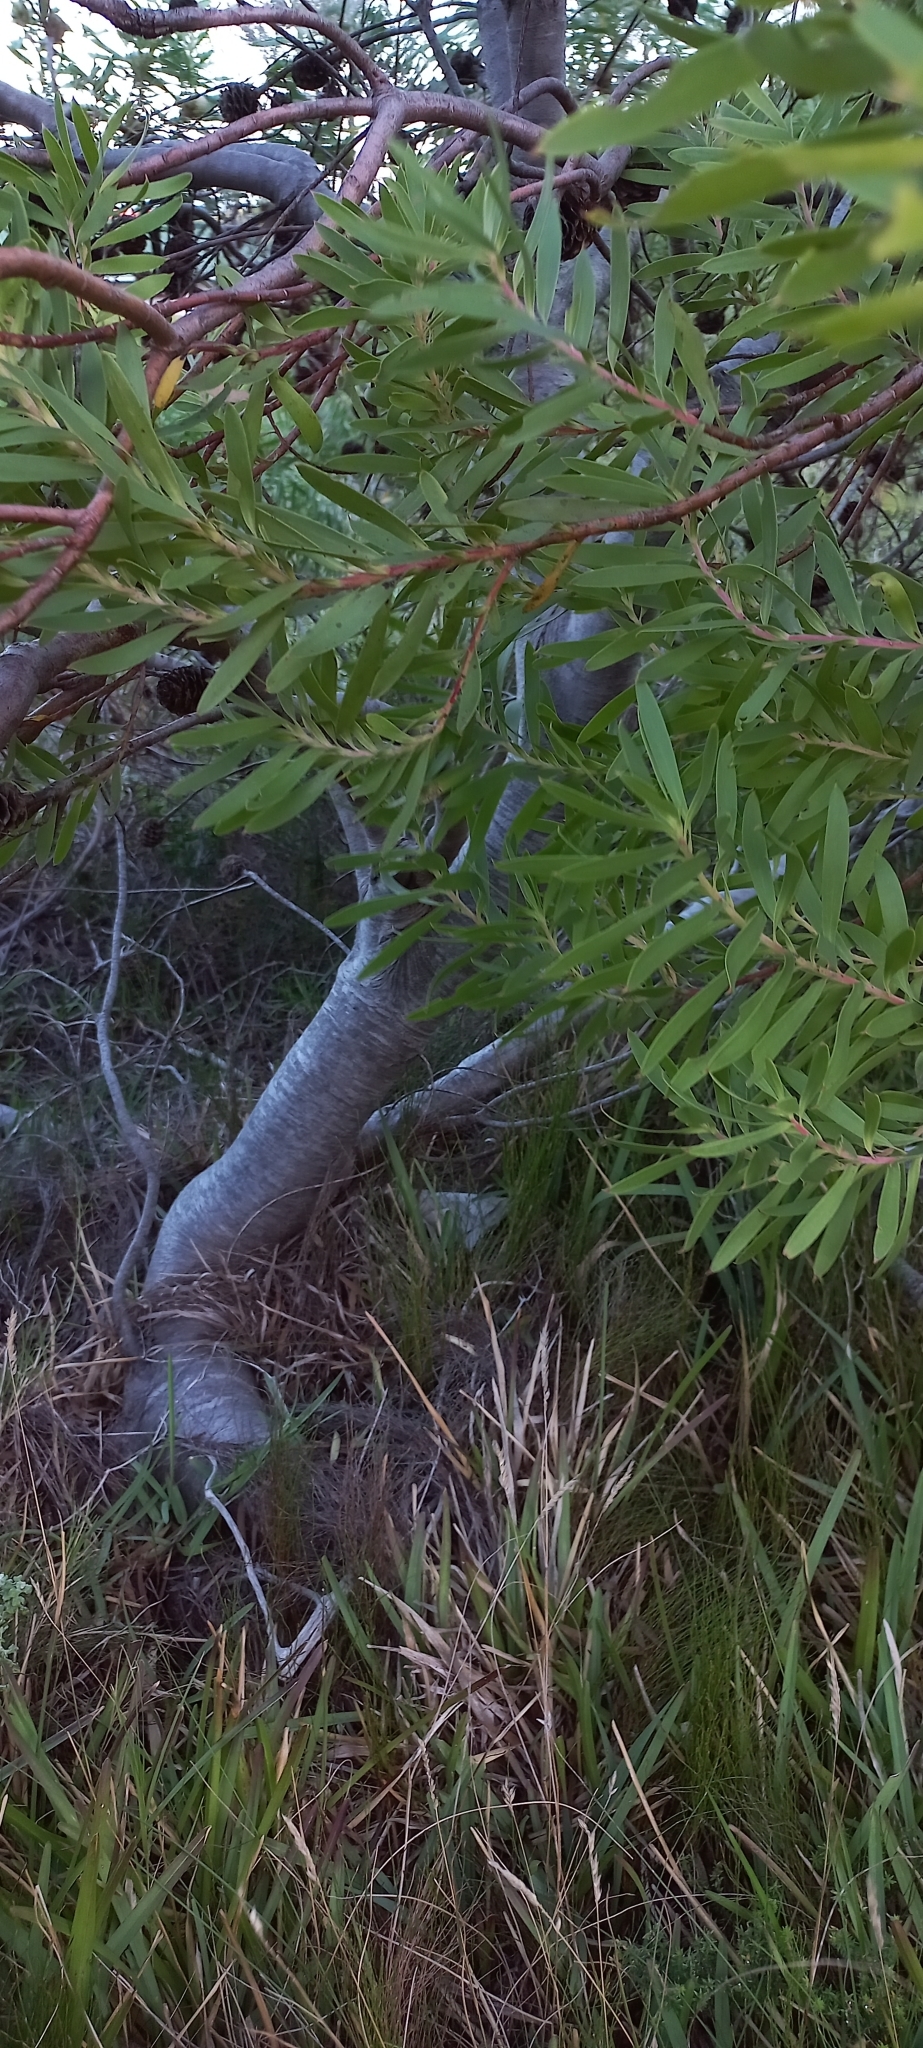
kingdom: Plantae
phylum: Tracheophyta
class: Magnoliopsida
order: Proteales
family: Proteaceae
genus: Leucadendron
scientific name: Leucadendron coniferum
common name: Dune conebush
